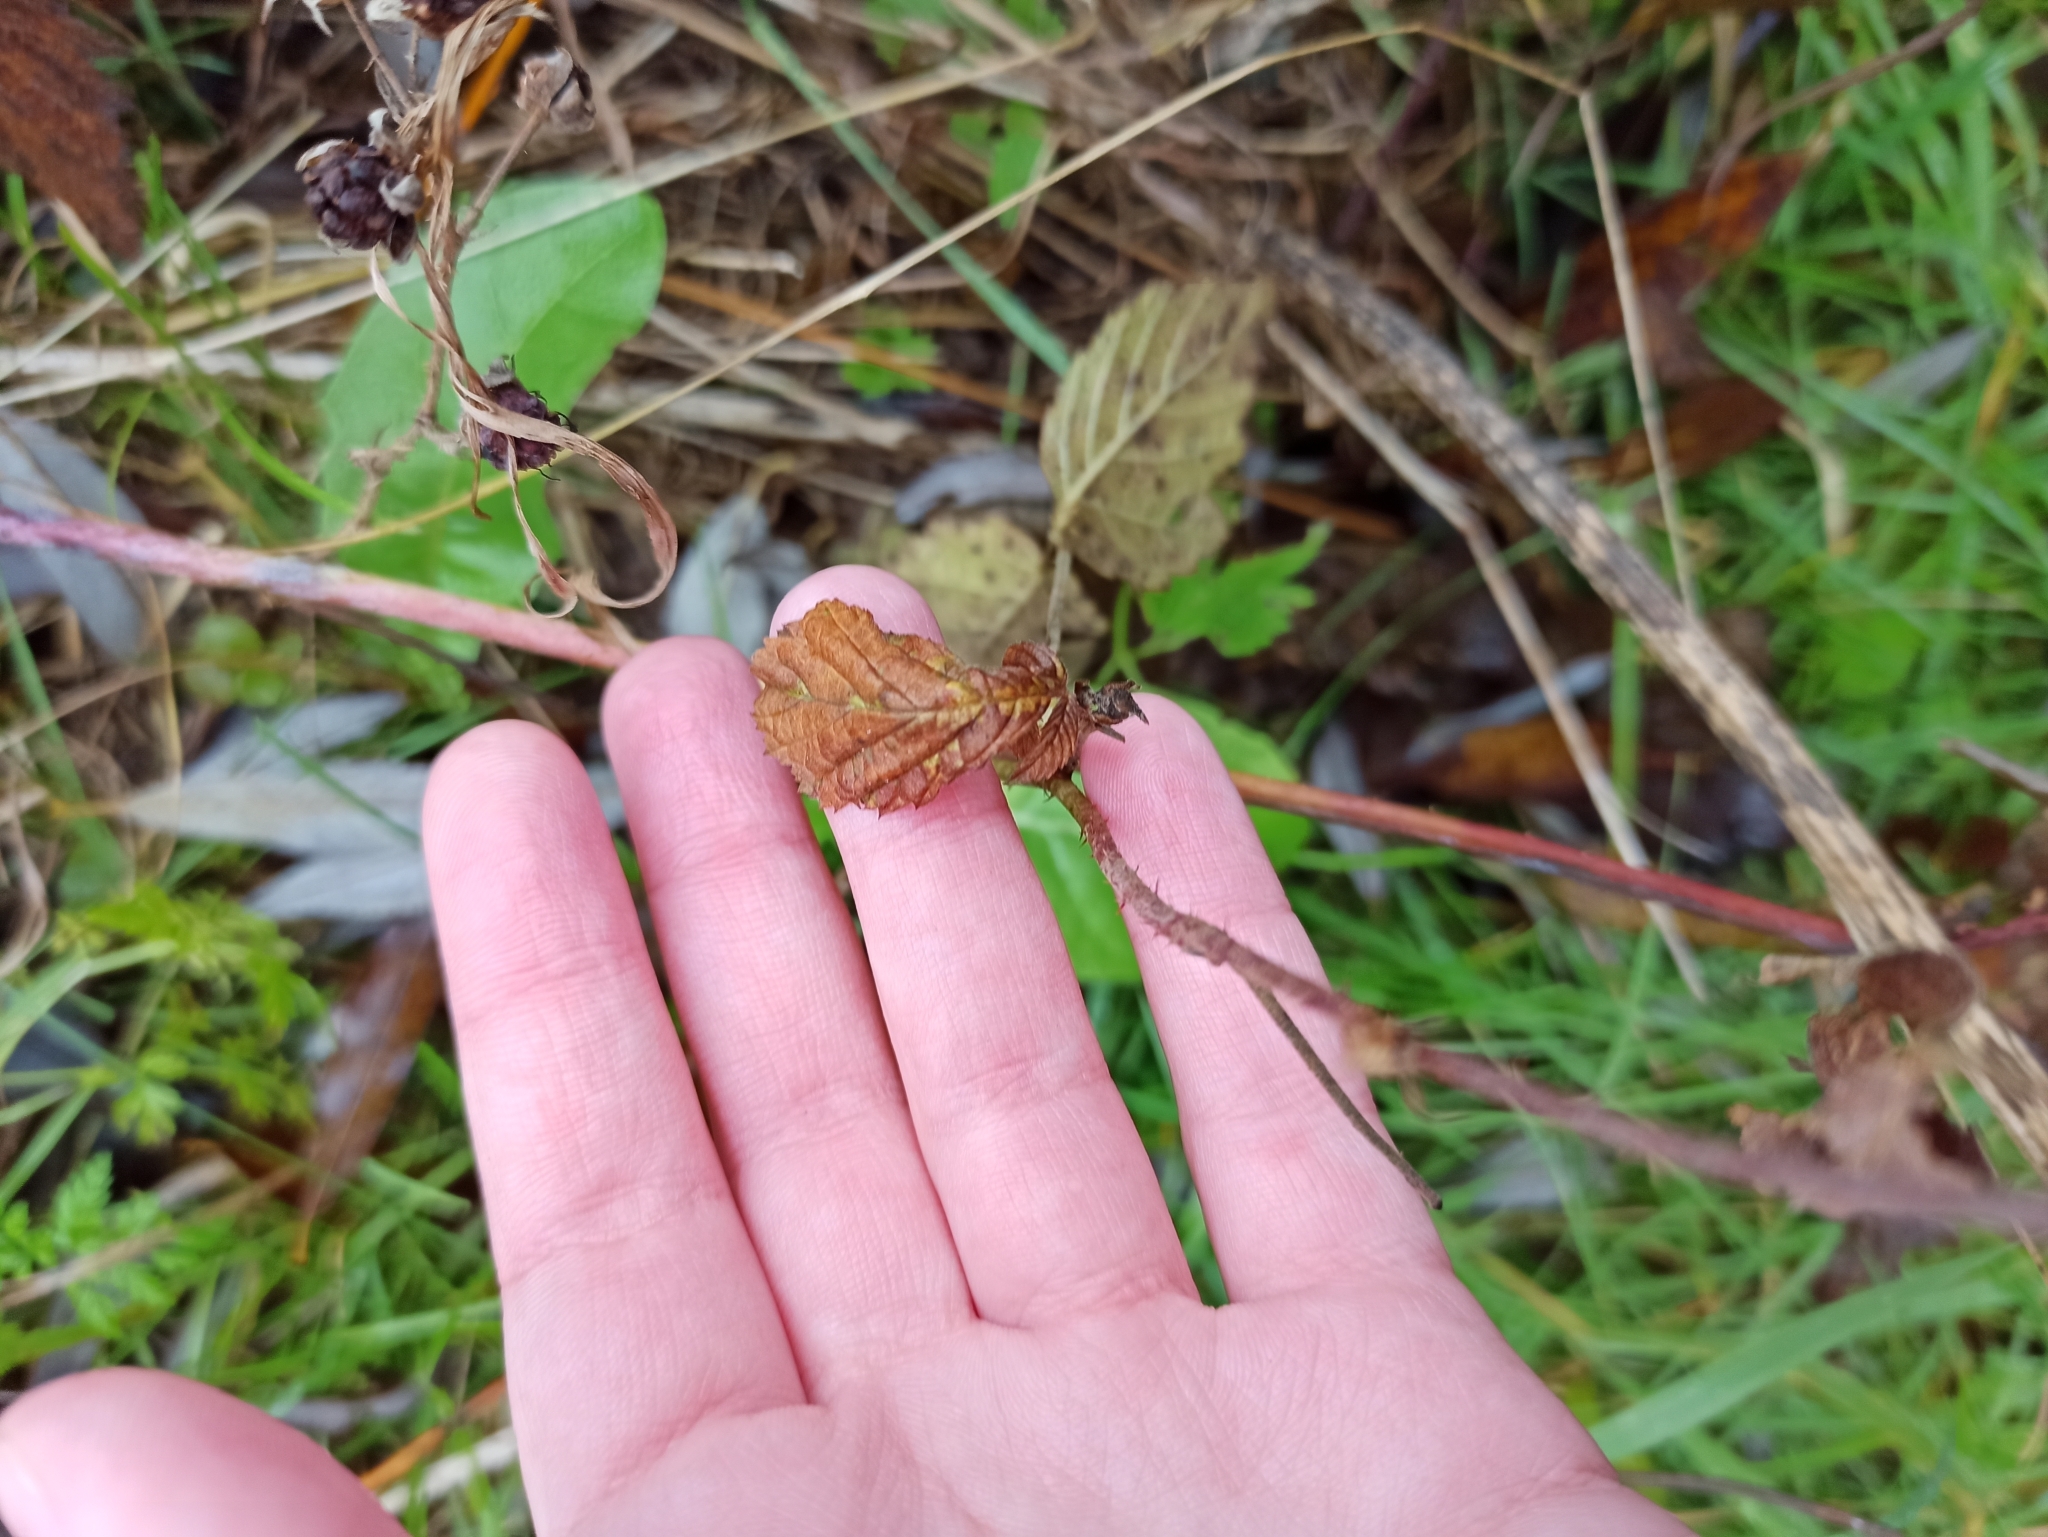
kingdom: Plantae
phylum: Tracheophyta
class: Magnoliopsida
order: Rosales
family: Rosaceae
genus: Rubus
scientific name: Rubus caesius
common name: Dewberry
